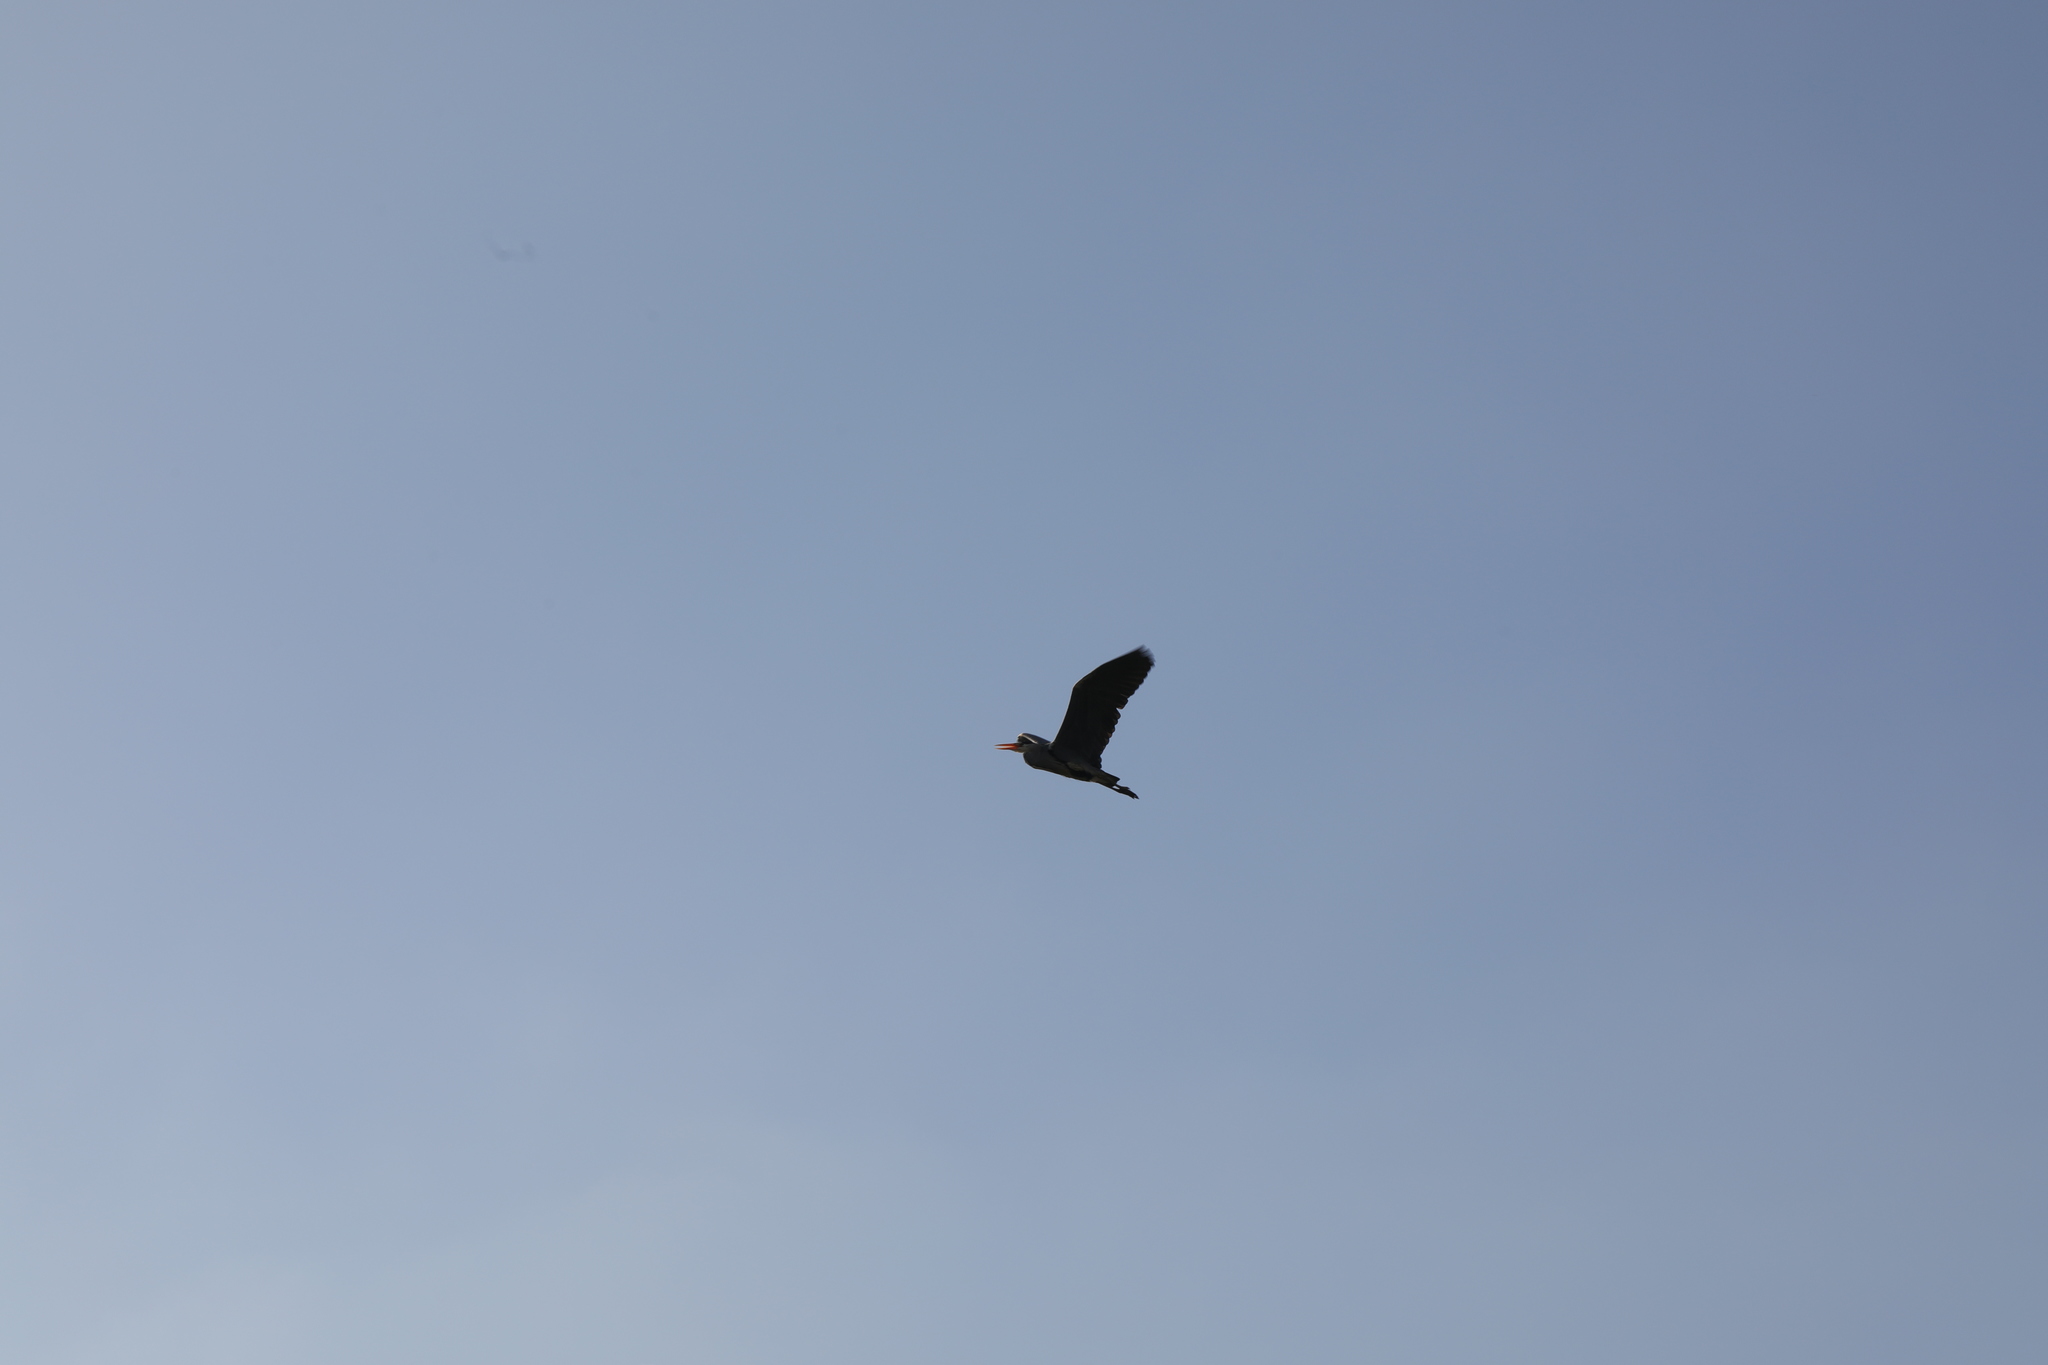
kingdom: Animalia
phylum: Chordata
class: Aves
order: Pelecaniformes
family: Ardeidae
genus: Ardea
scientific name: Ardea cinerea
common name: Grey heron
